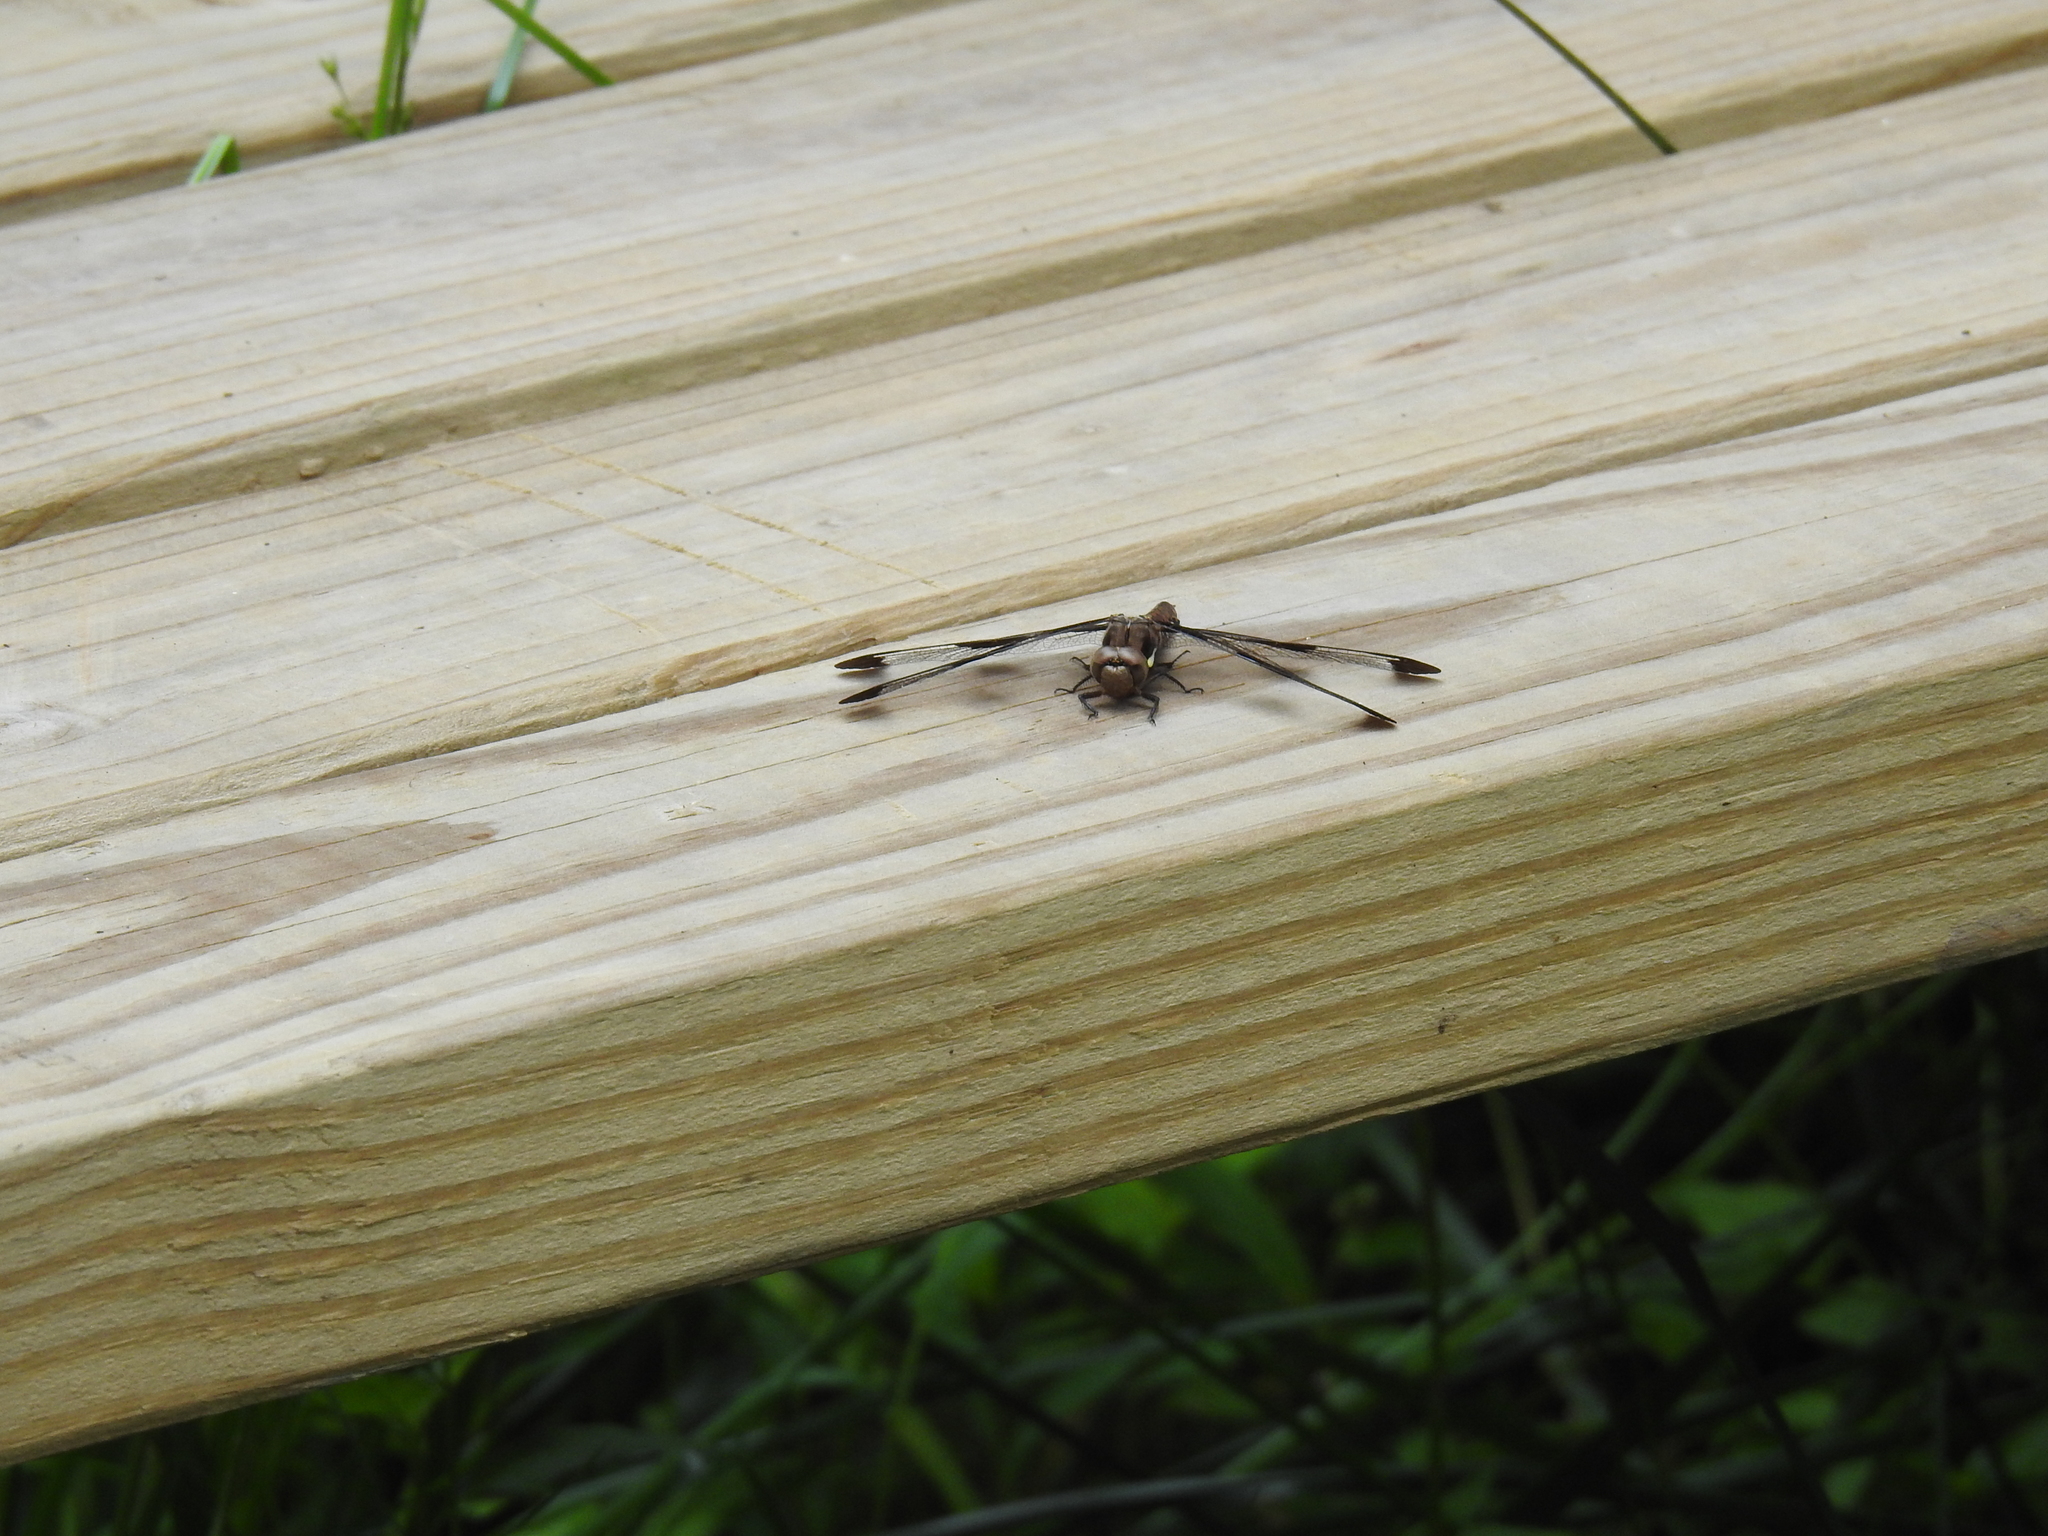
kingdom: Animalia
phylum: Arthropoda
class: Insecta
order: Odonata
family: Libellulidae
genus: Plathemis
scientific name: Plathemis lydia
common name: Common whitetail
